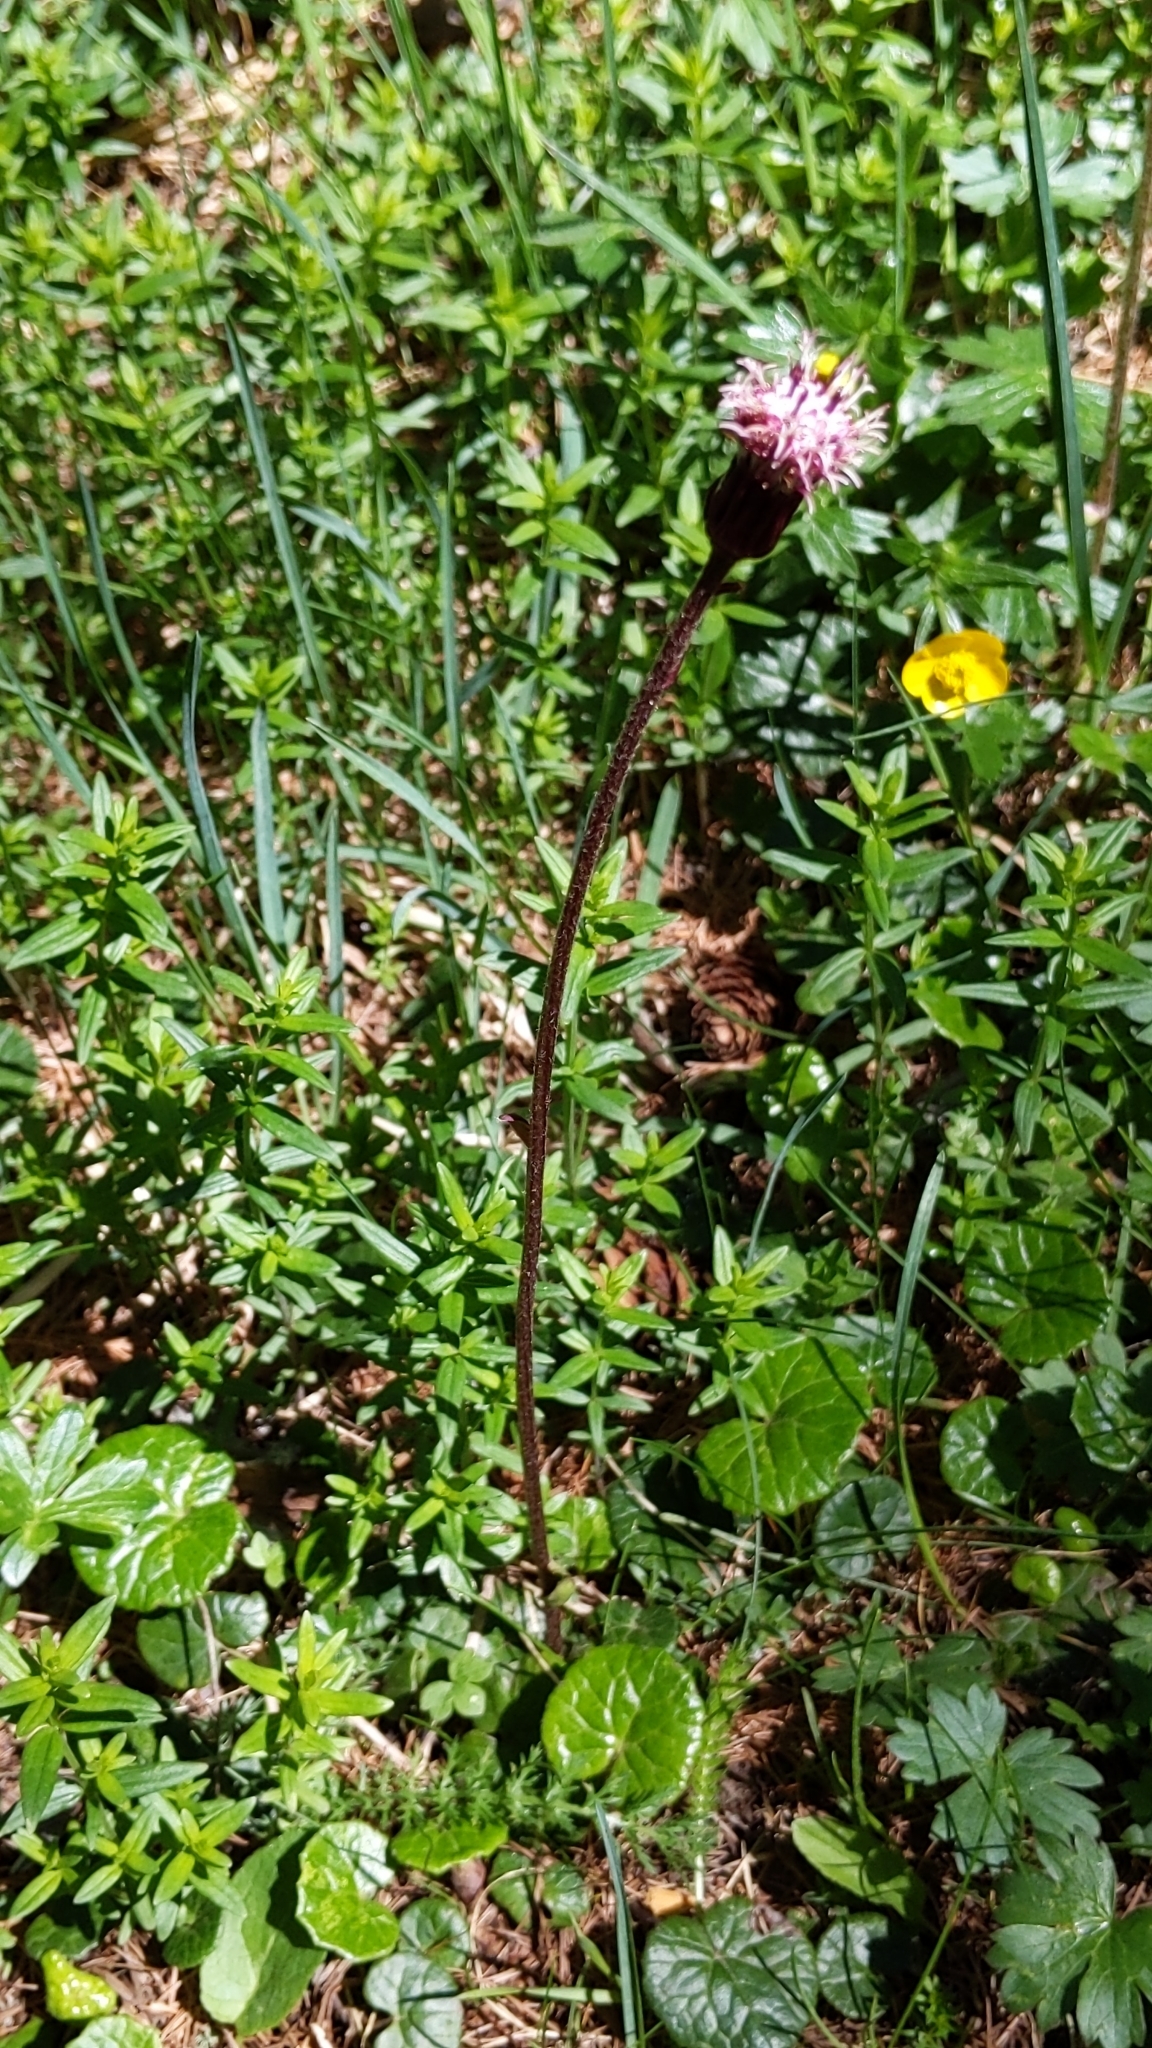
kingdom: Plantae
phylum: Tracheophyta
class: Magnoliopsida
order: Asterales
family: Asteraceae
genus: Homogyne
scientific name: Homogyne alpina
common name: Purple colt's-foot
